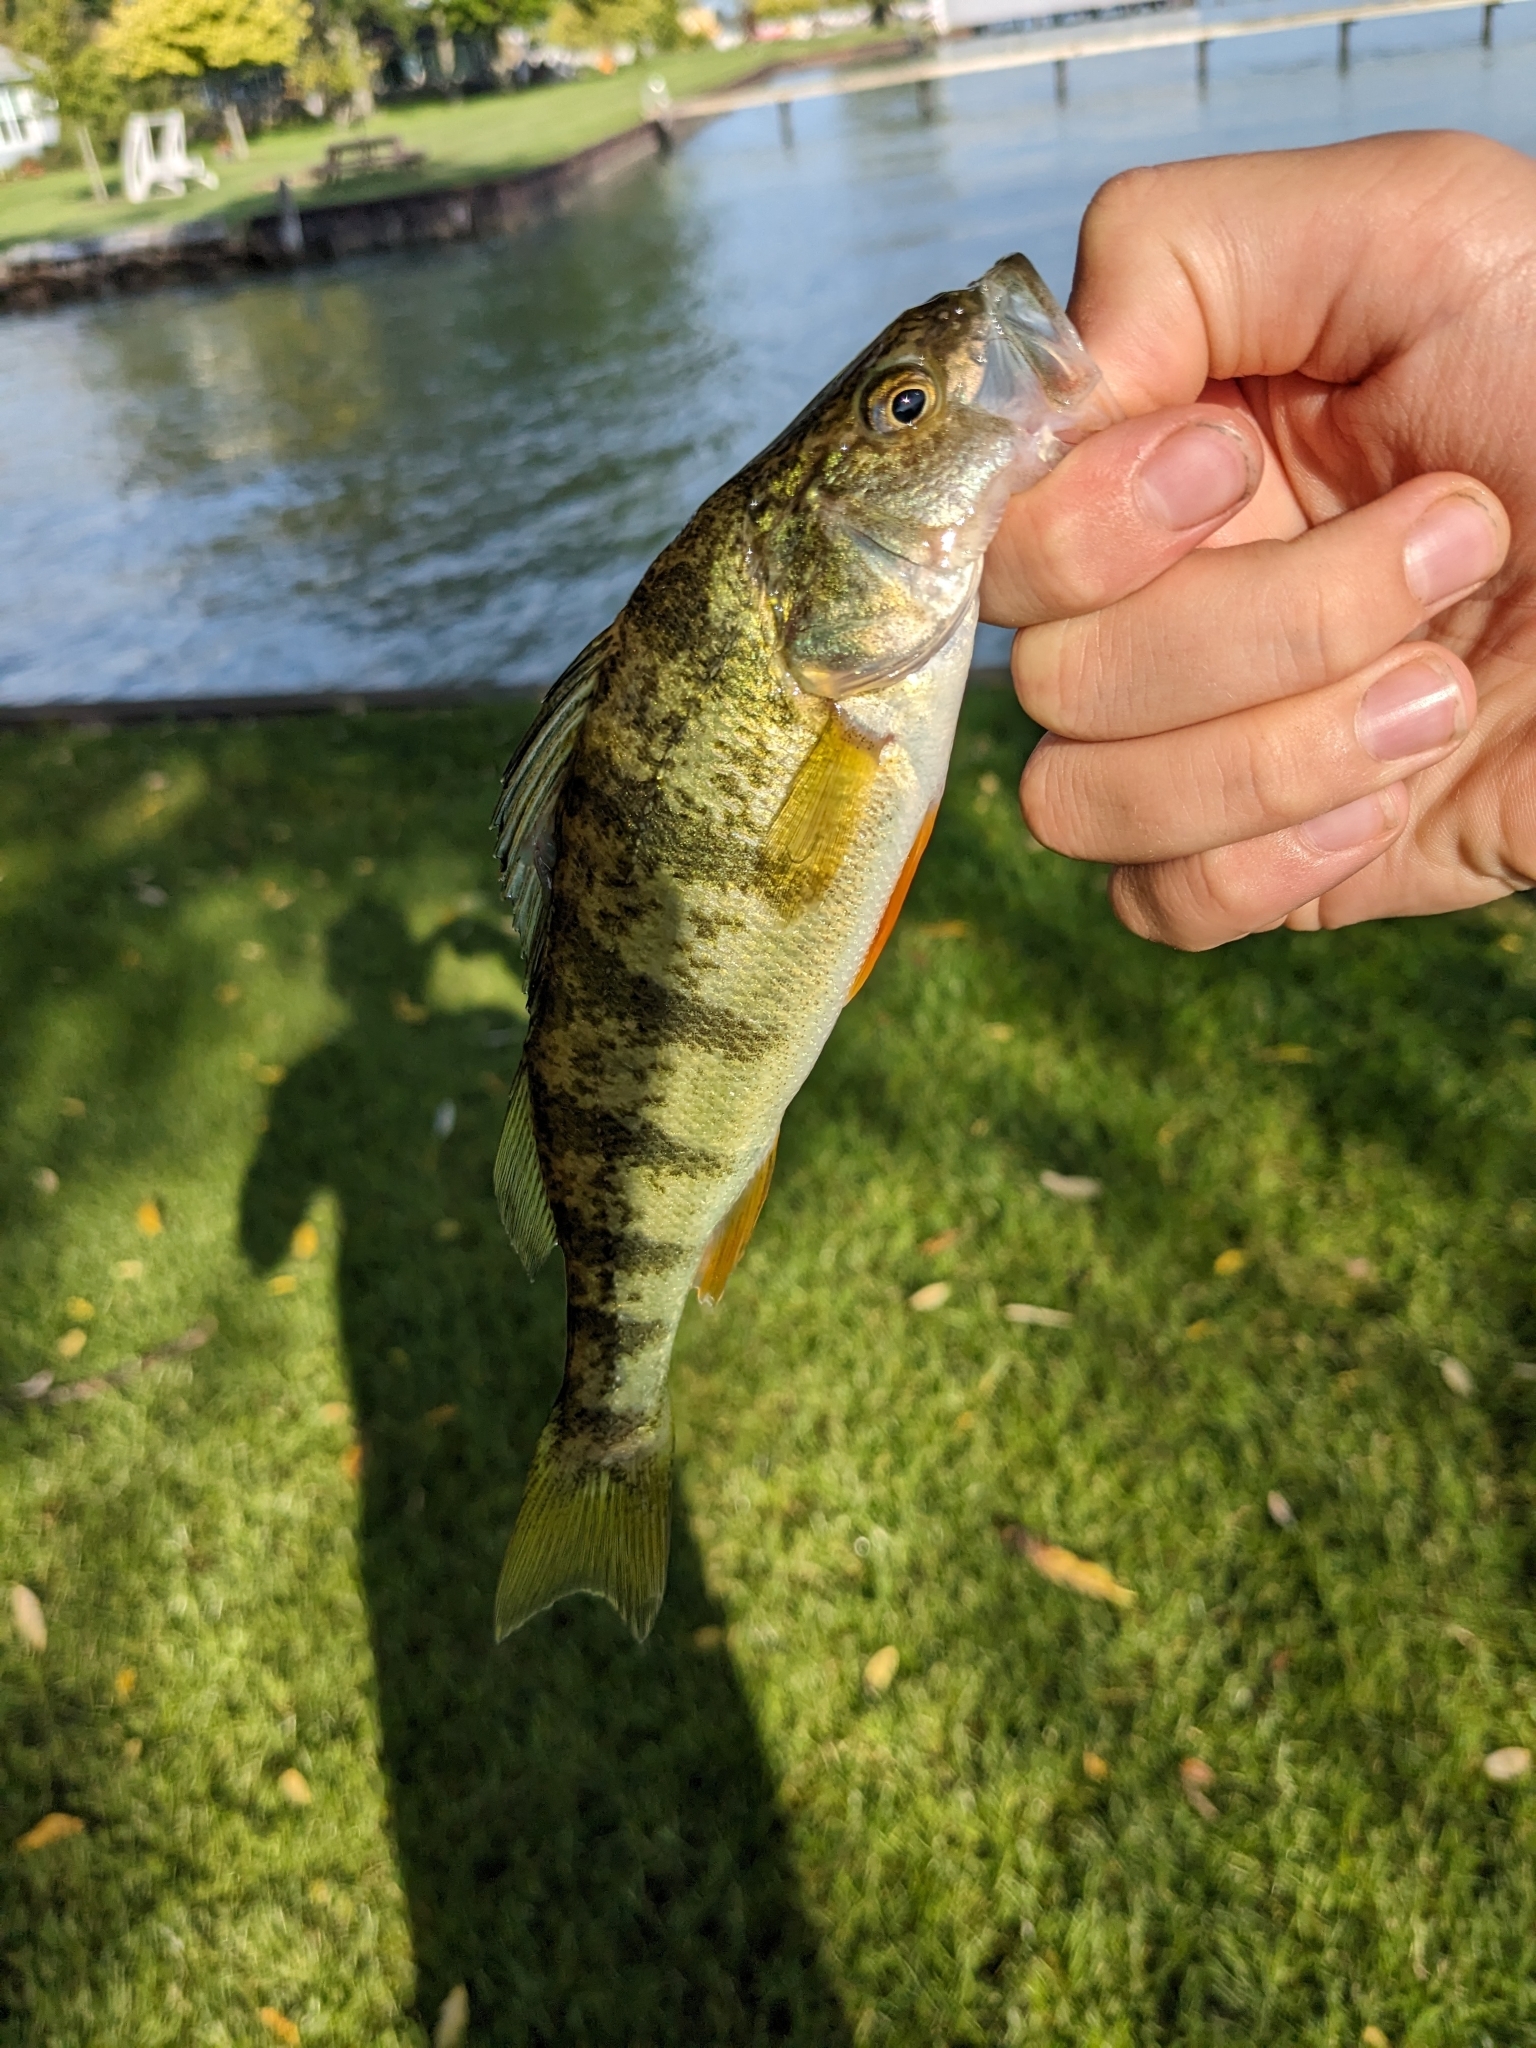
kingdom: Animalia
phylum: Chordata
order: Perciformes
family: Percidae
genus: Perca
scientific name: Perca flavescens
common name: Yellow perch
